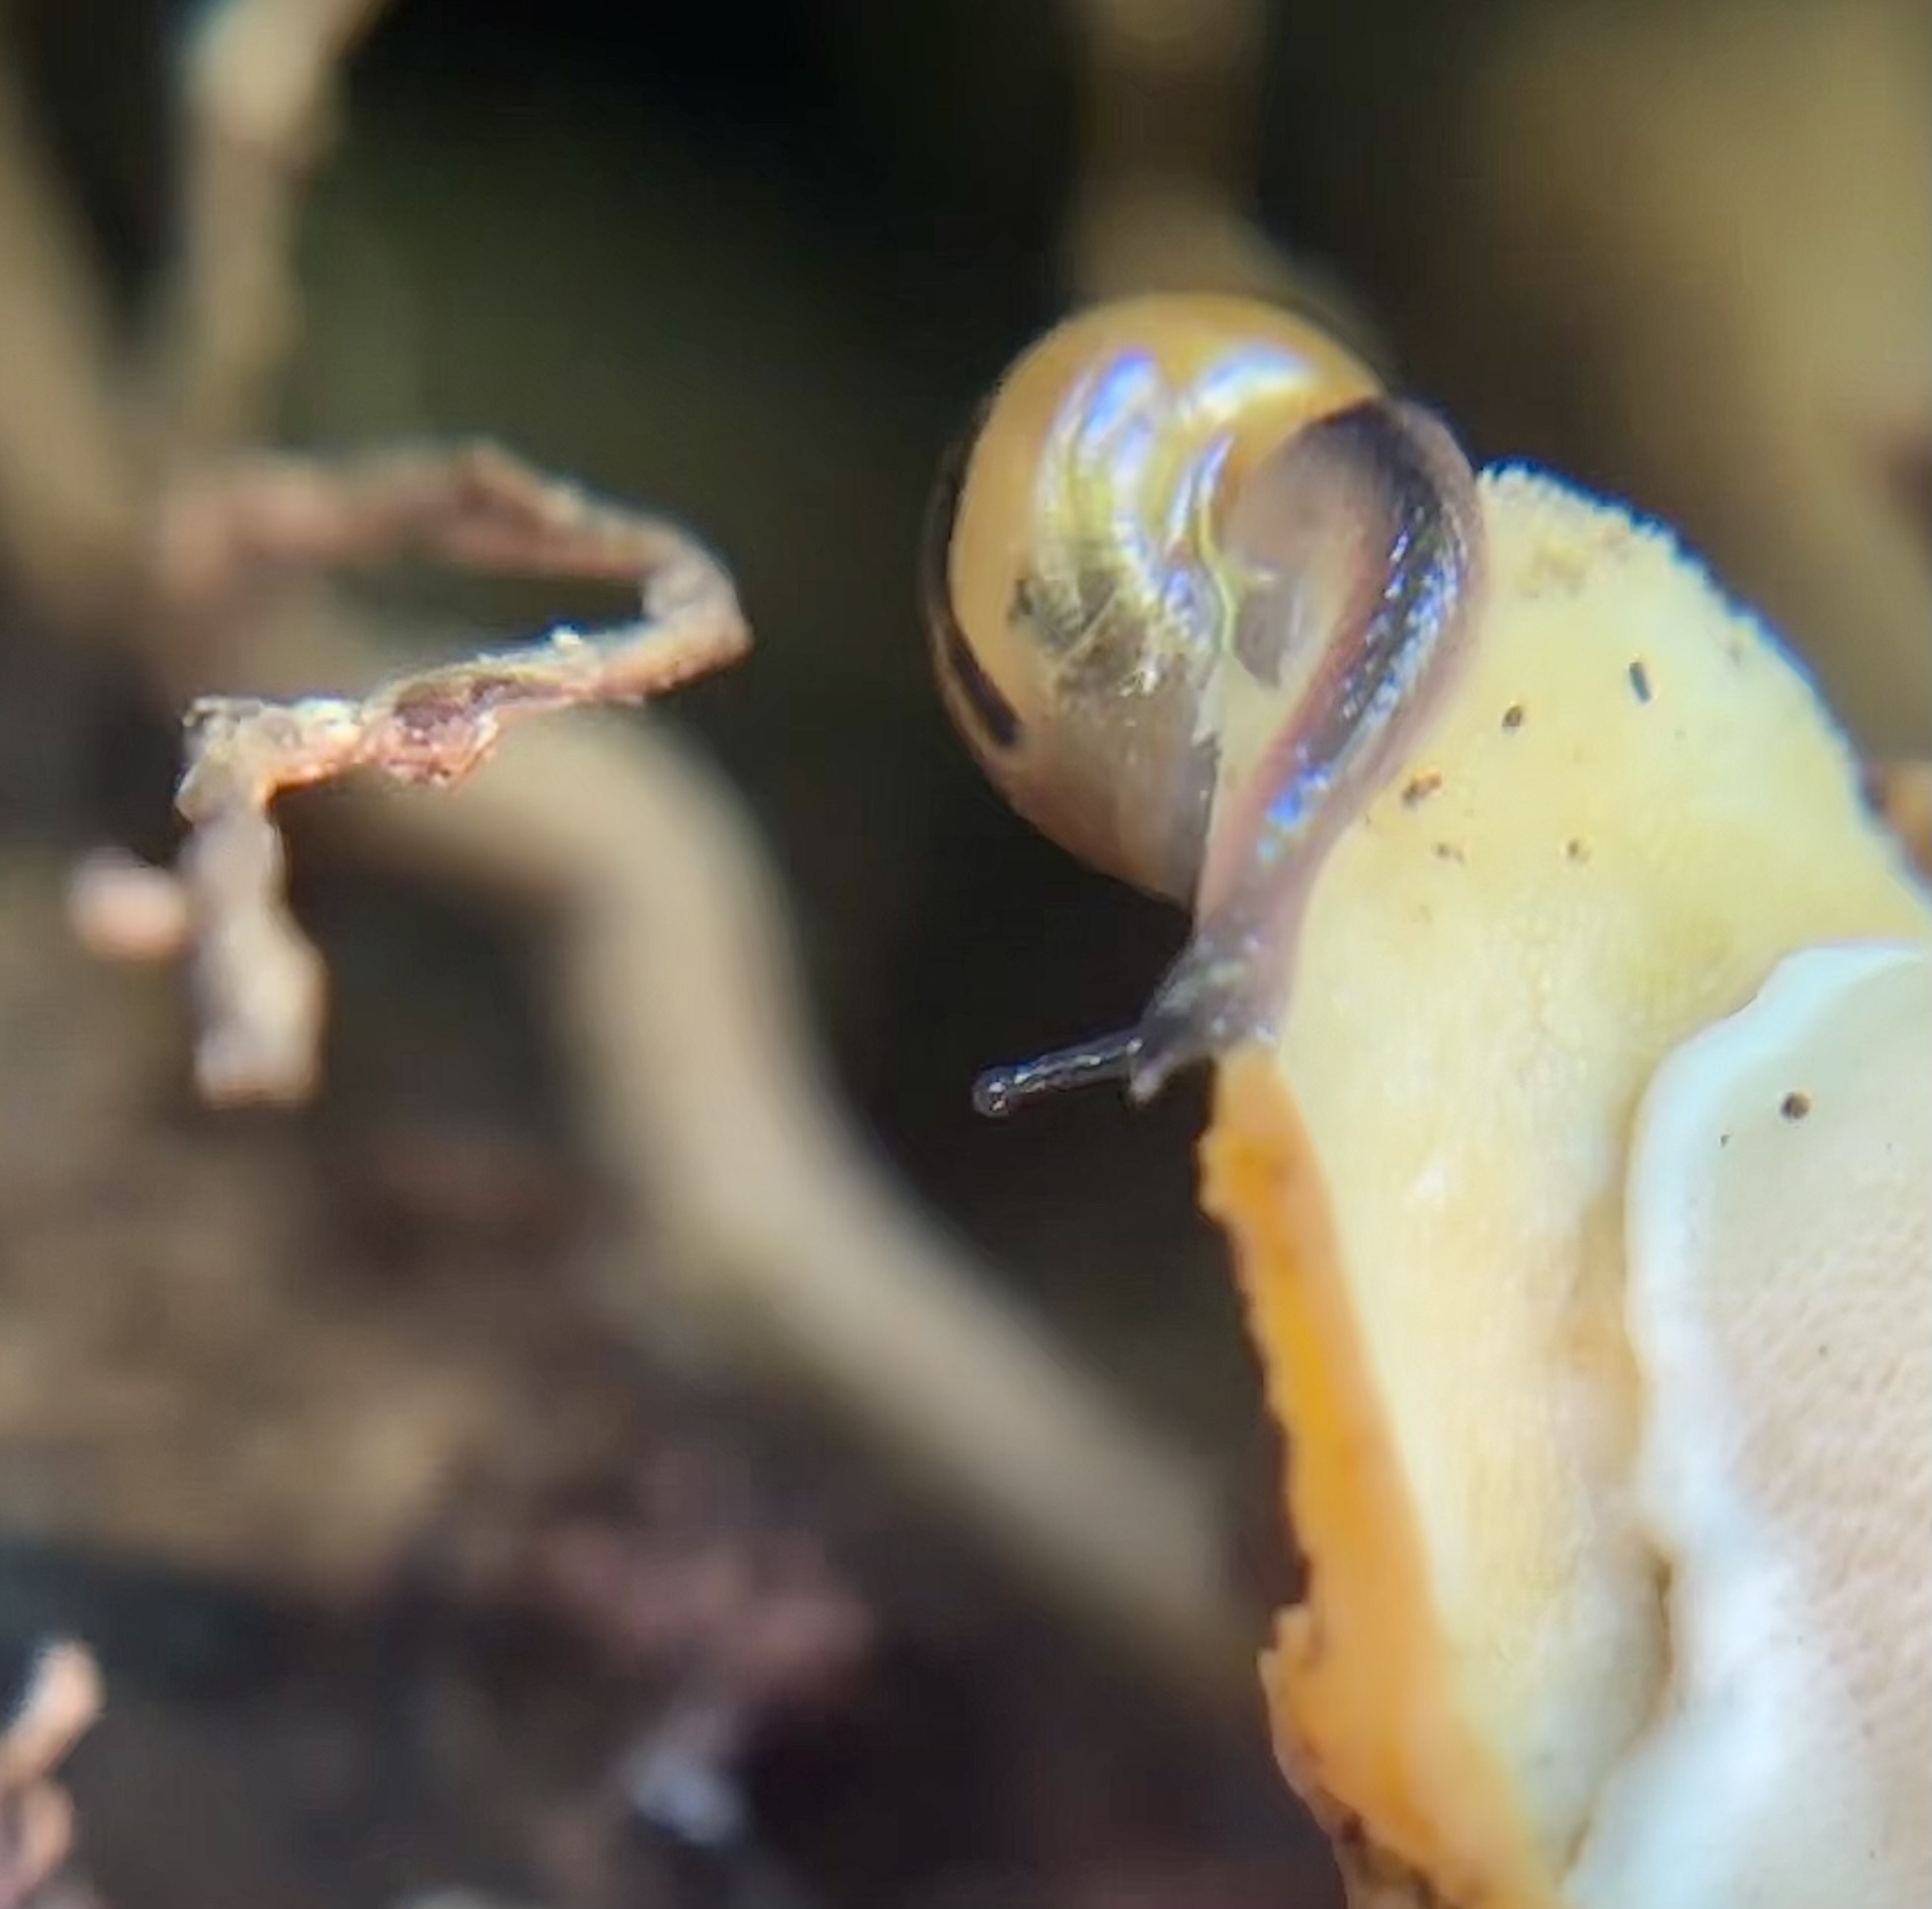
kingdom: Animalia
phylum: Mollusca
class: Gastropoda
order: Stylommatophora
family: Helicarionidae
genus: Ovachlamys
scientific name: Ovachlamys fulgens
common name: Jumping snail
